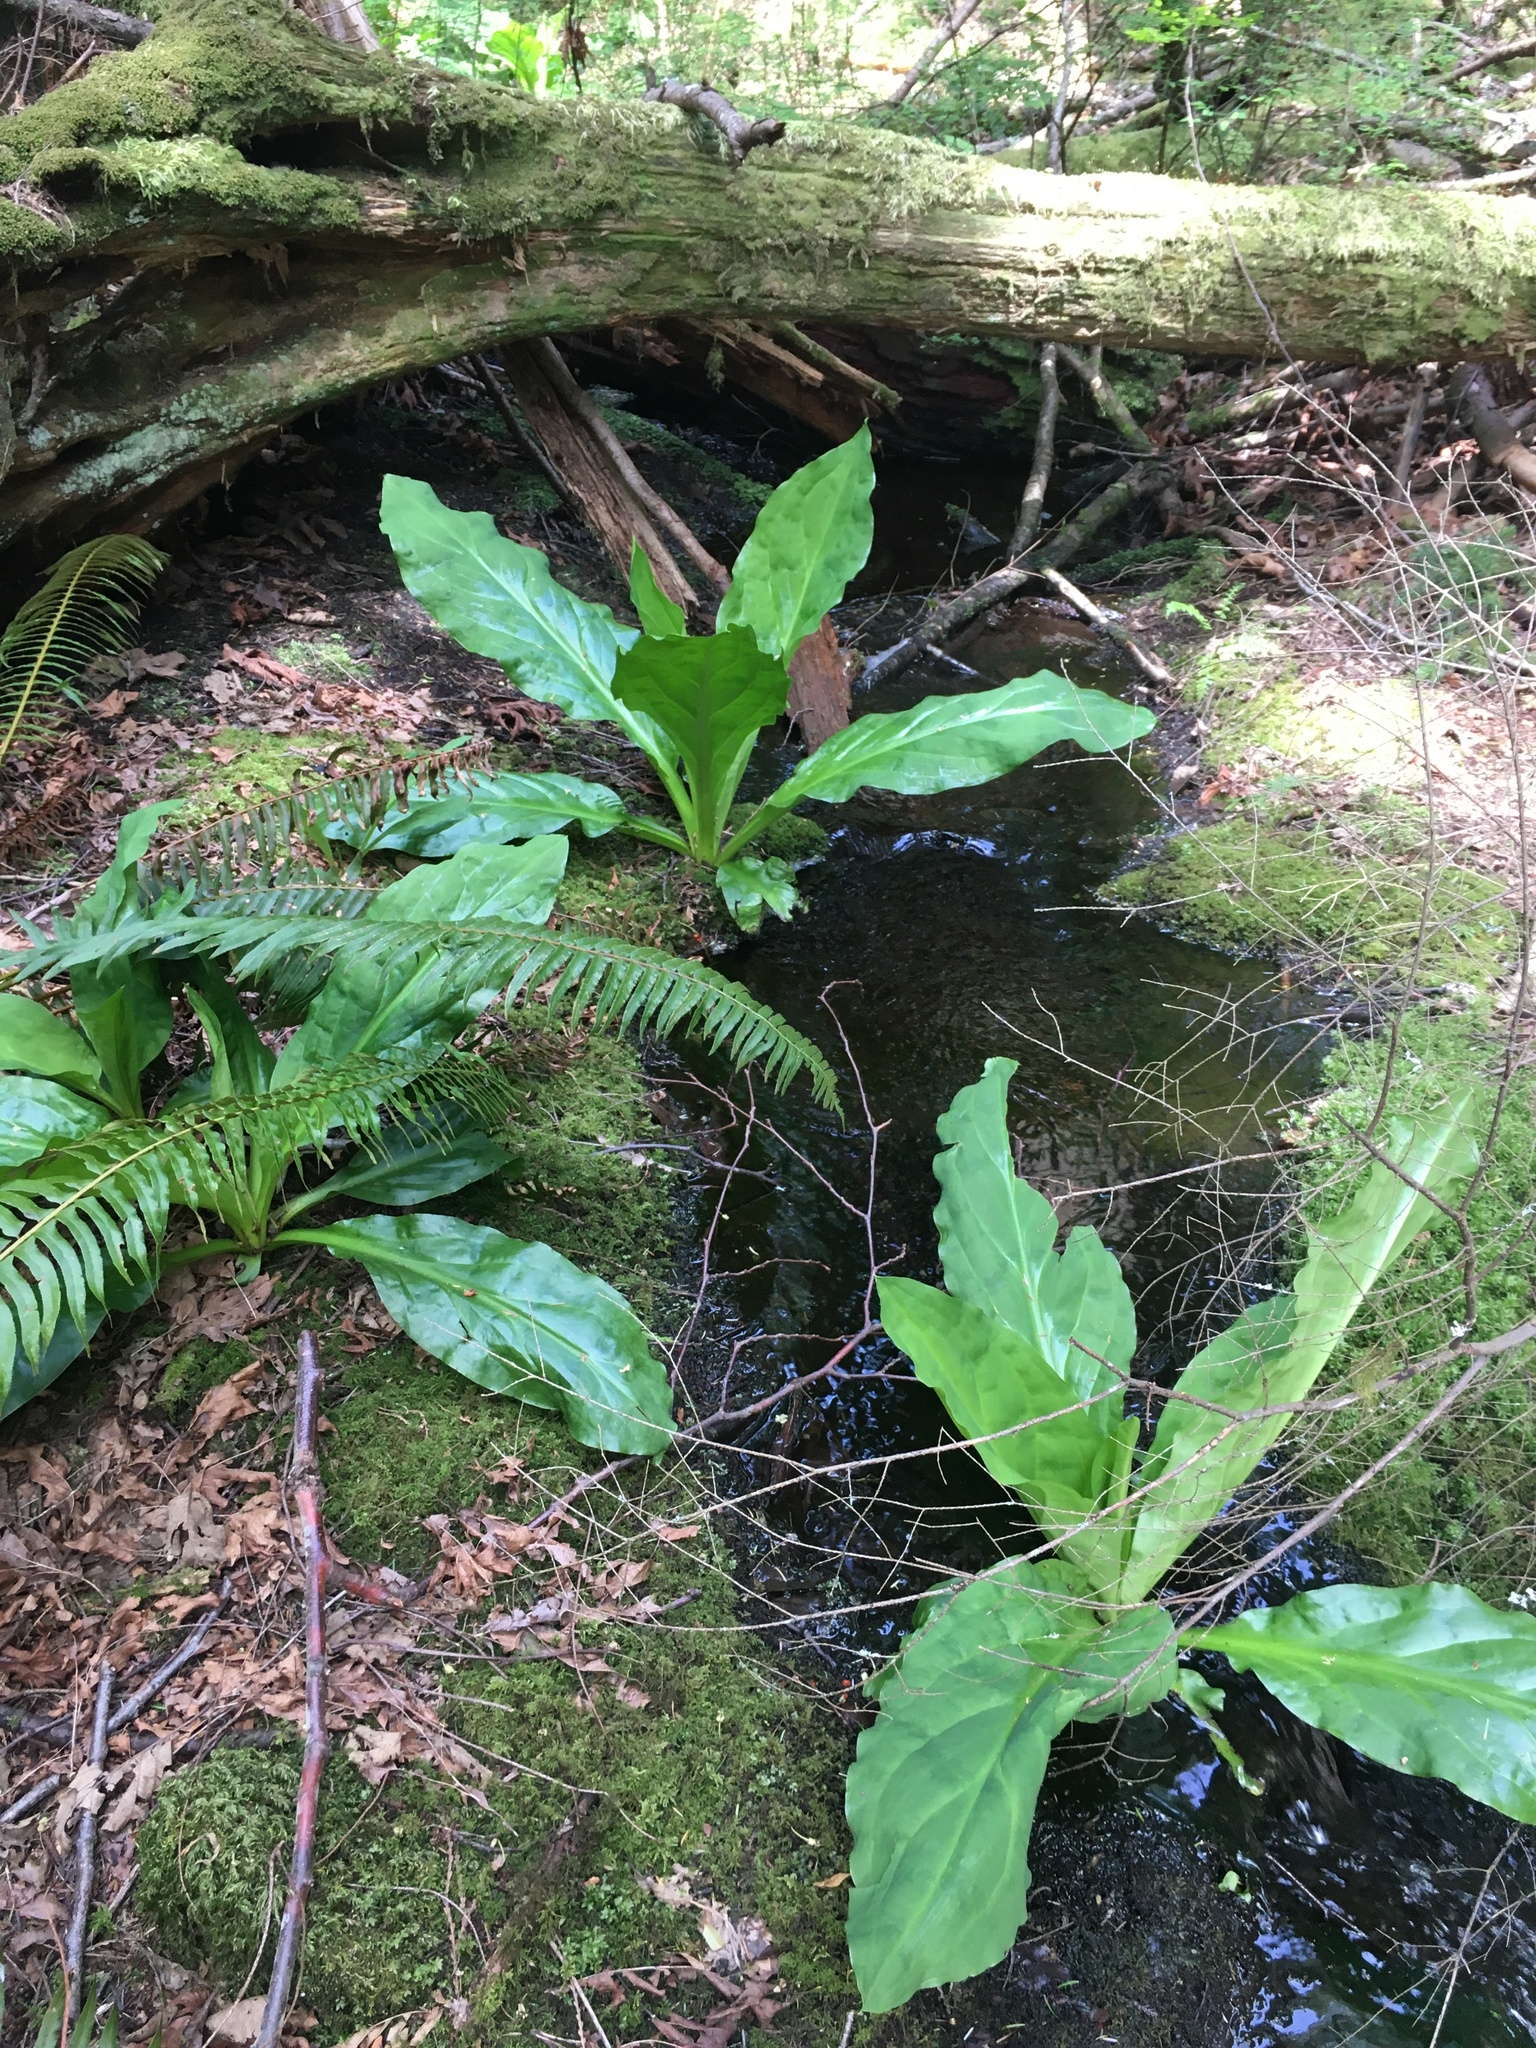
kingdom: Plantae
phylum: Tracheophyta
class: Liliopsida
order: Alismatales
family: Araceae
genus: Lysichiton
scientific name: Lysichiton americanus
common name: American skunk cabbage
